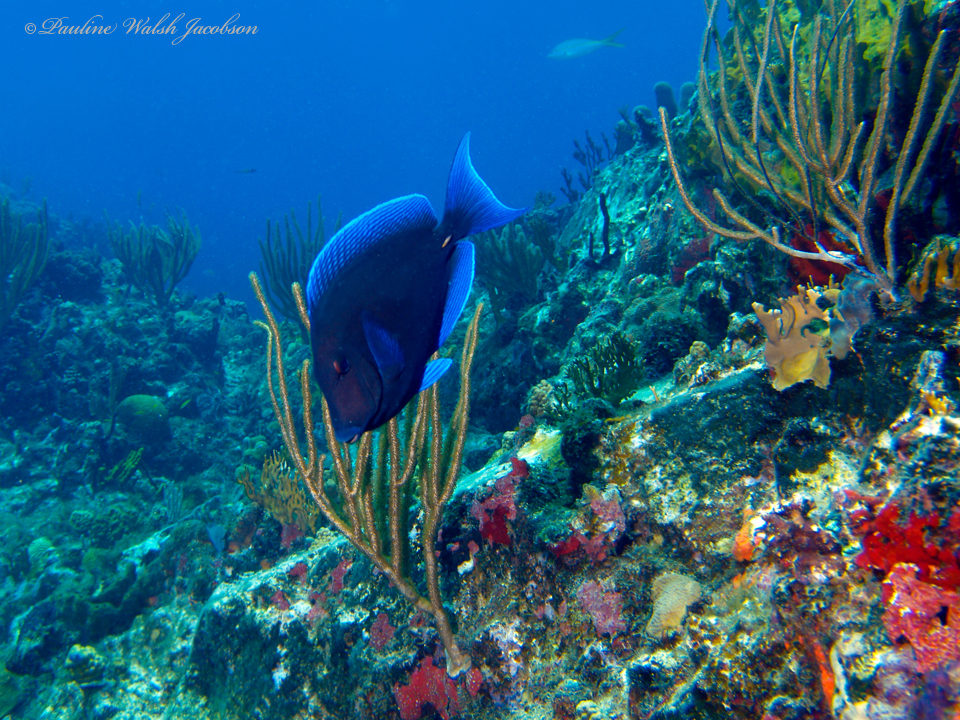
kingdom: Animalia
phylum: Chordata
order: Perciformes
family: Acanthuridae
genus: Acanthurus
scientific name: Acanthurus coeruleus
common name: Blue tang
